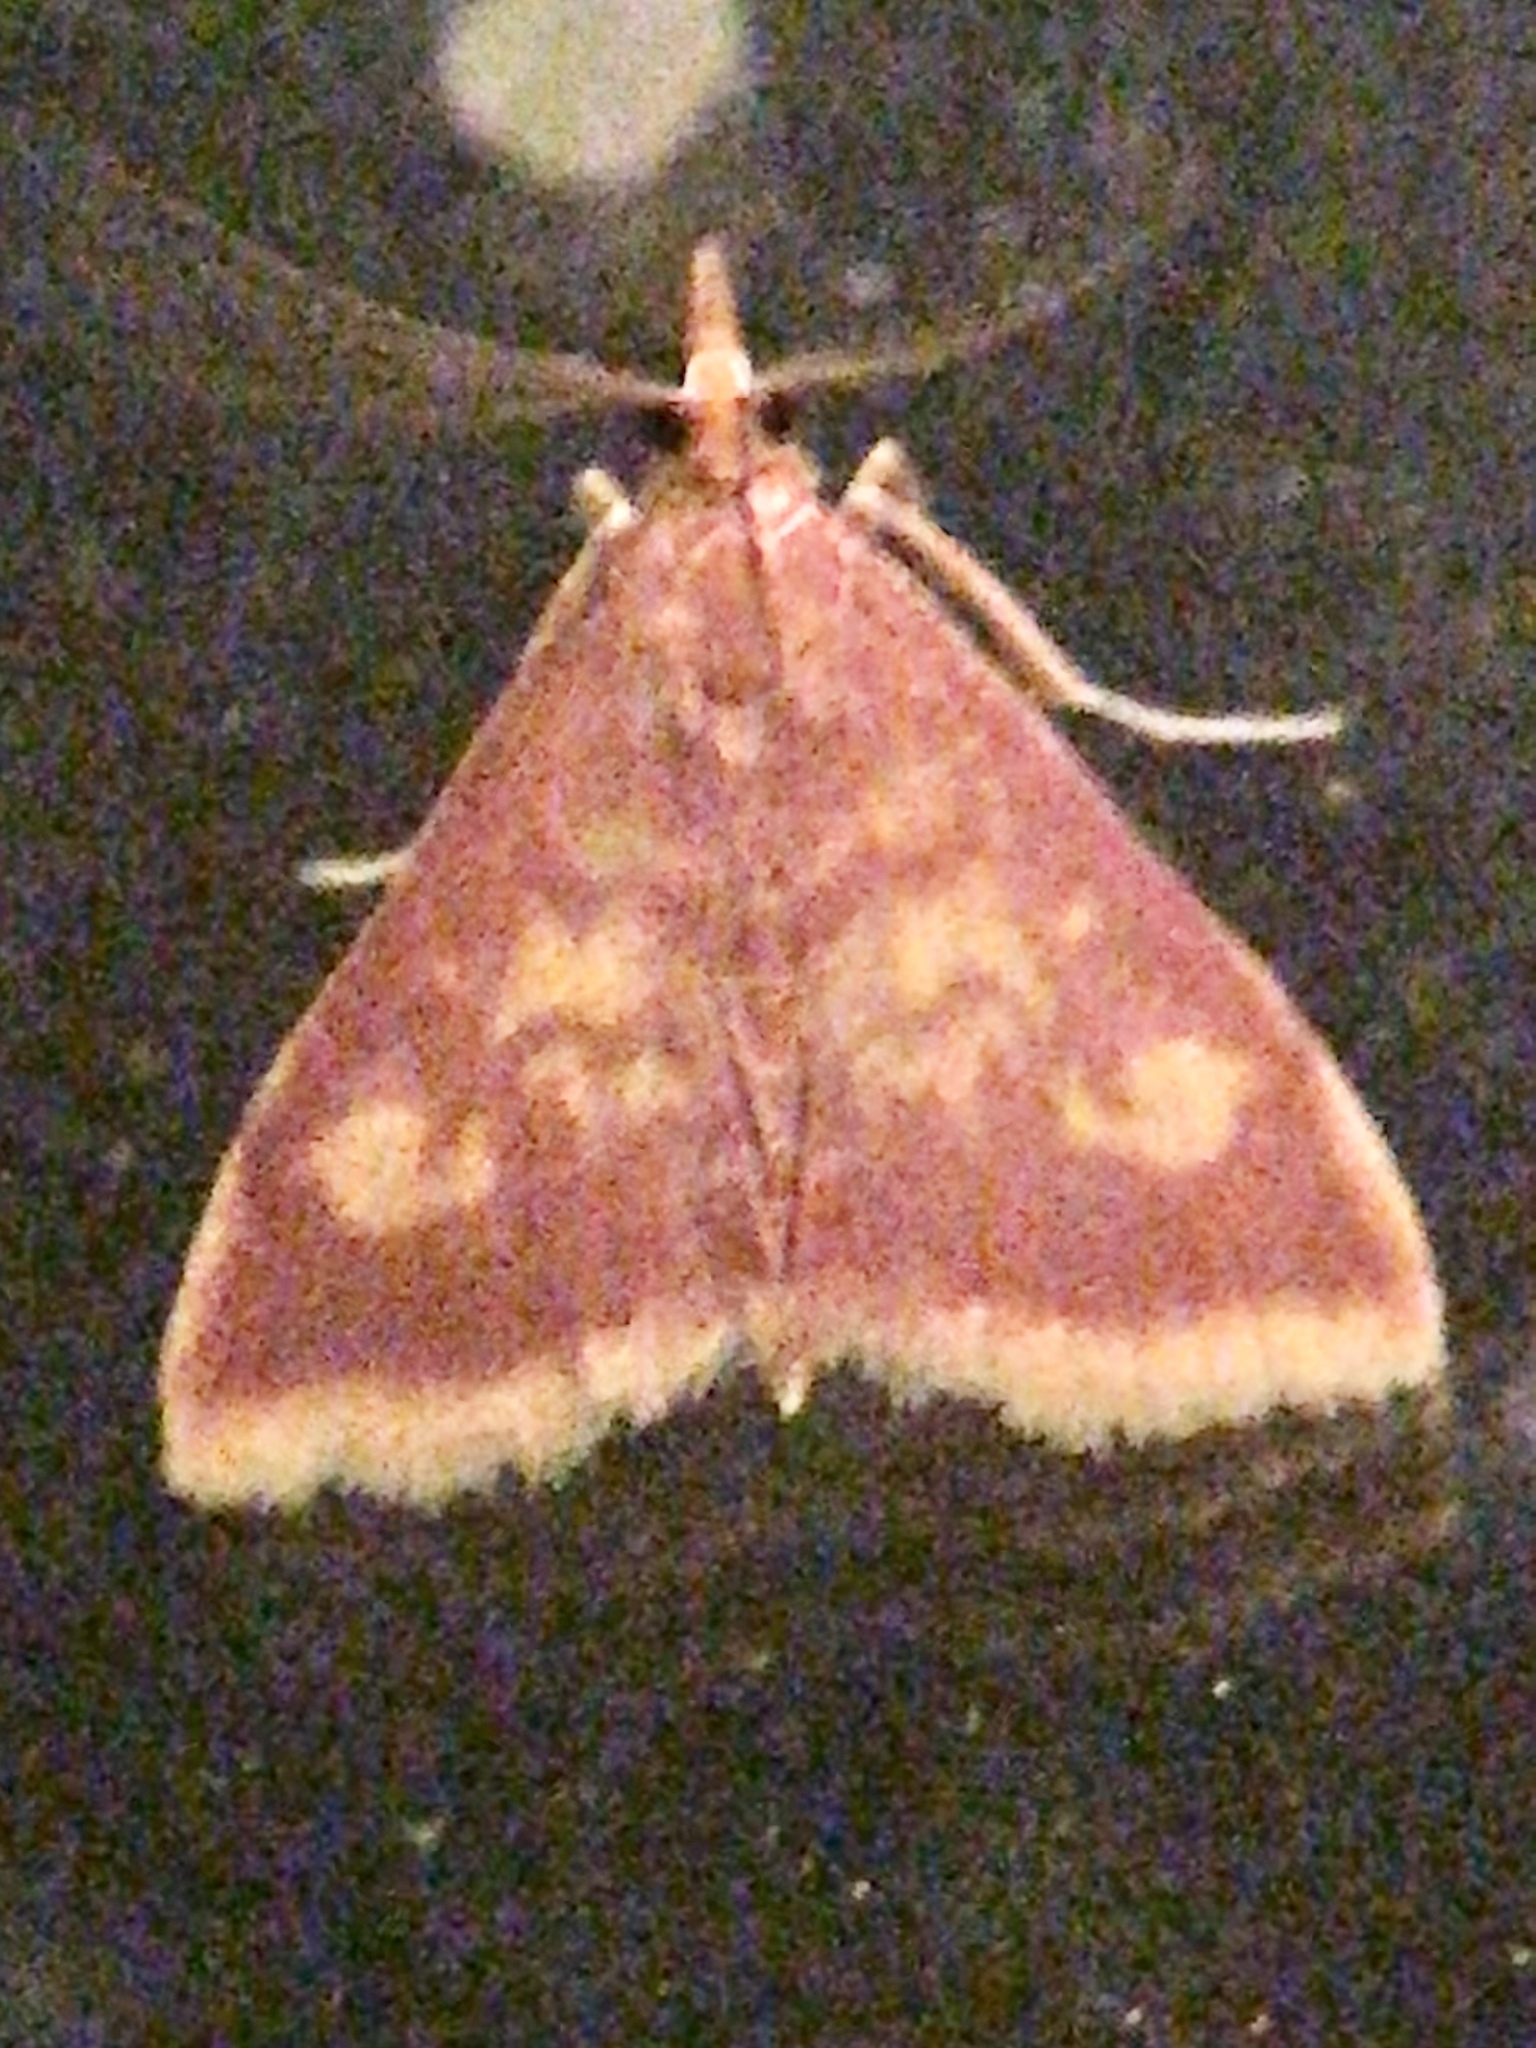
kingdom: Animalia
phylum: Arthropoda
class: Insecta
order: Lepidoptera
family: Crambidae
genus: Pyrausta
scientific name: Pyrausta acrionalis
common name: Mint-loving pyrausta moth
